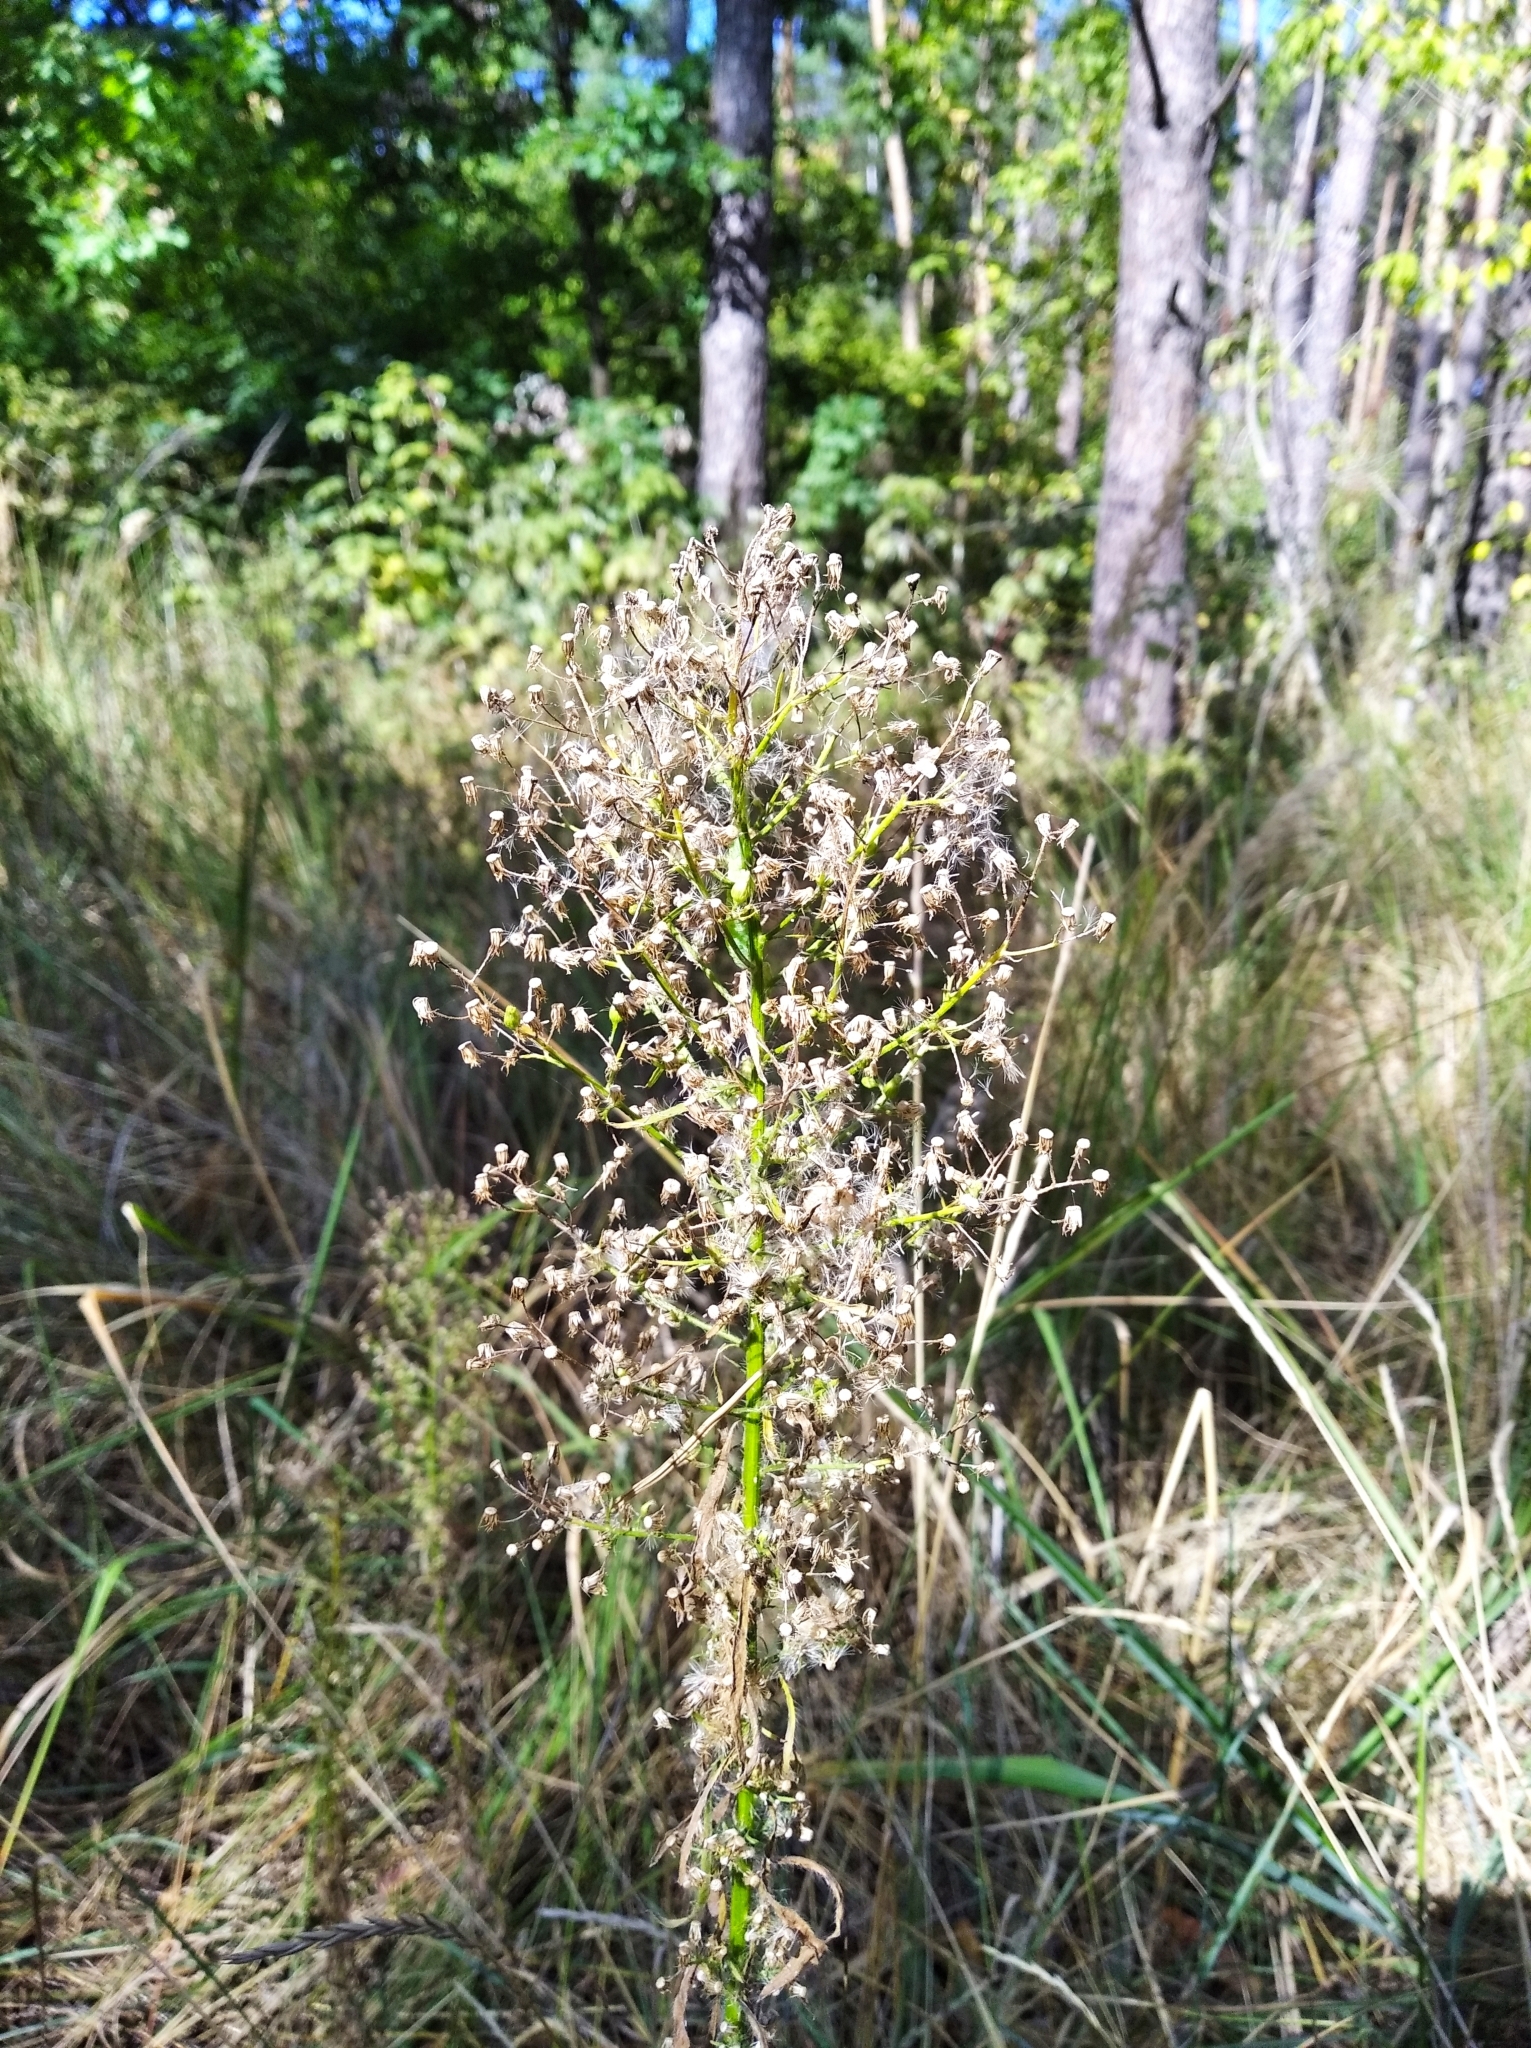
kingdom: Plantae
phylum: Tracheophyta
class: Magnoliopsida
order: Asterales
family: Asteraceae
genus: Erigeron
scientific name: Erigeron canadensis
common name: Canadian fleabane
